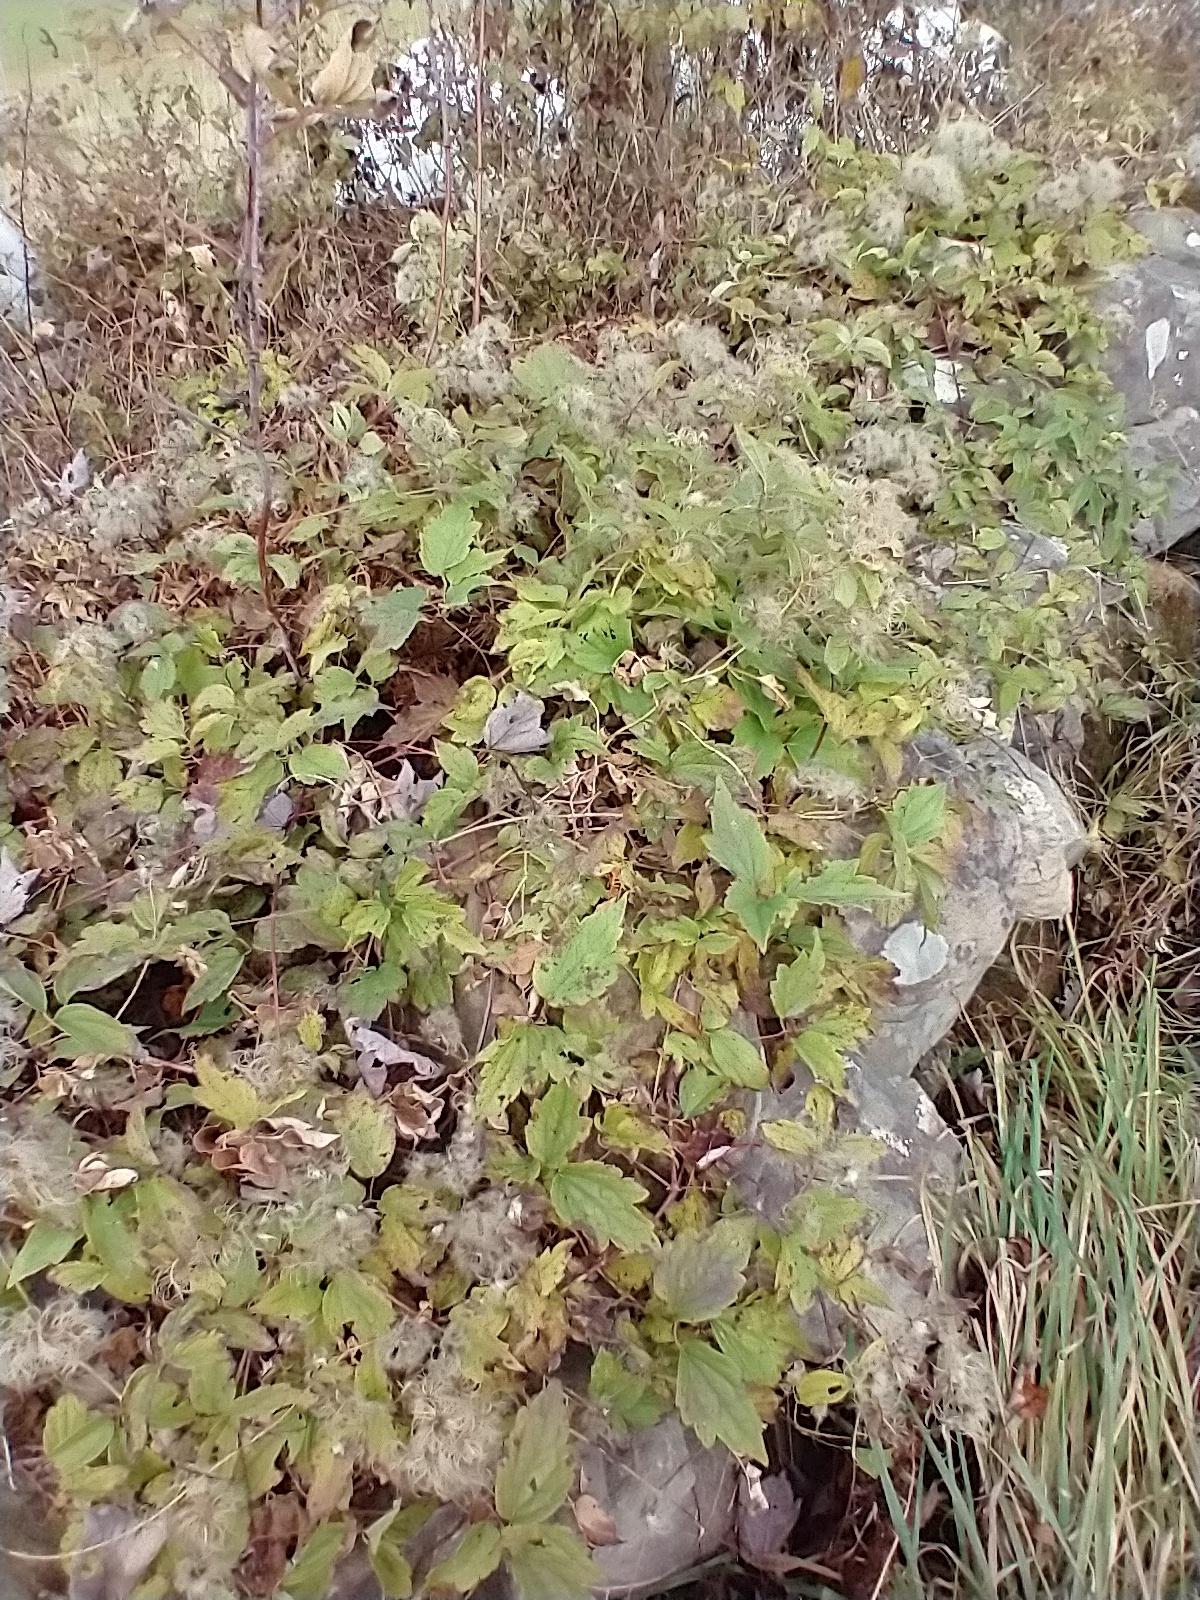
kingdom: Plantae
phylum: Tracheophyta
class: Magnoliopsida
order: Ranunculales
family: Ranunculaceae
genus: Clematis
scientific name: Clematis virginiana
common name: Virgin's-bower
